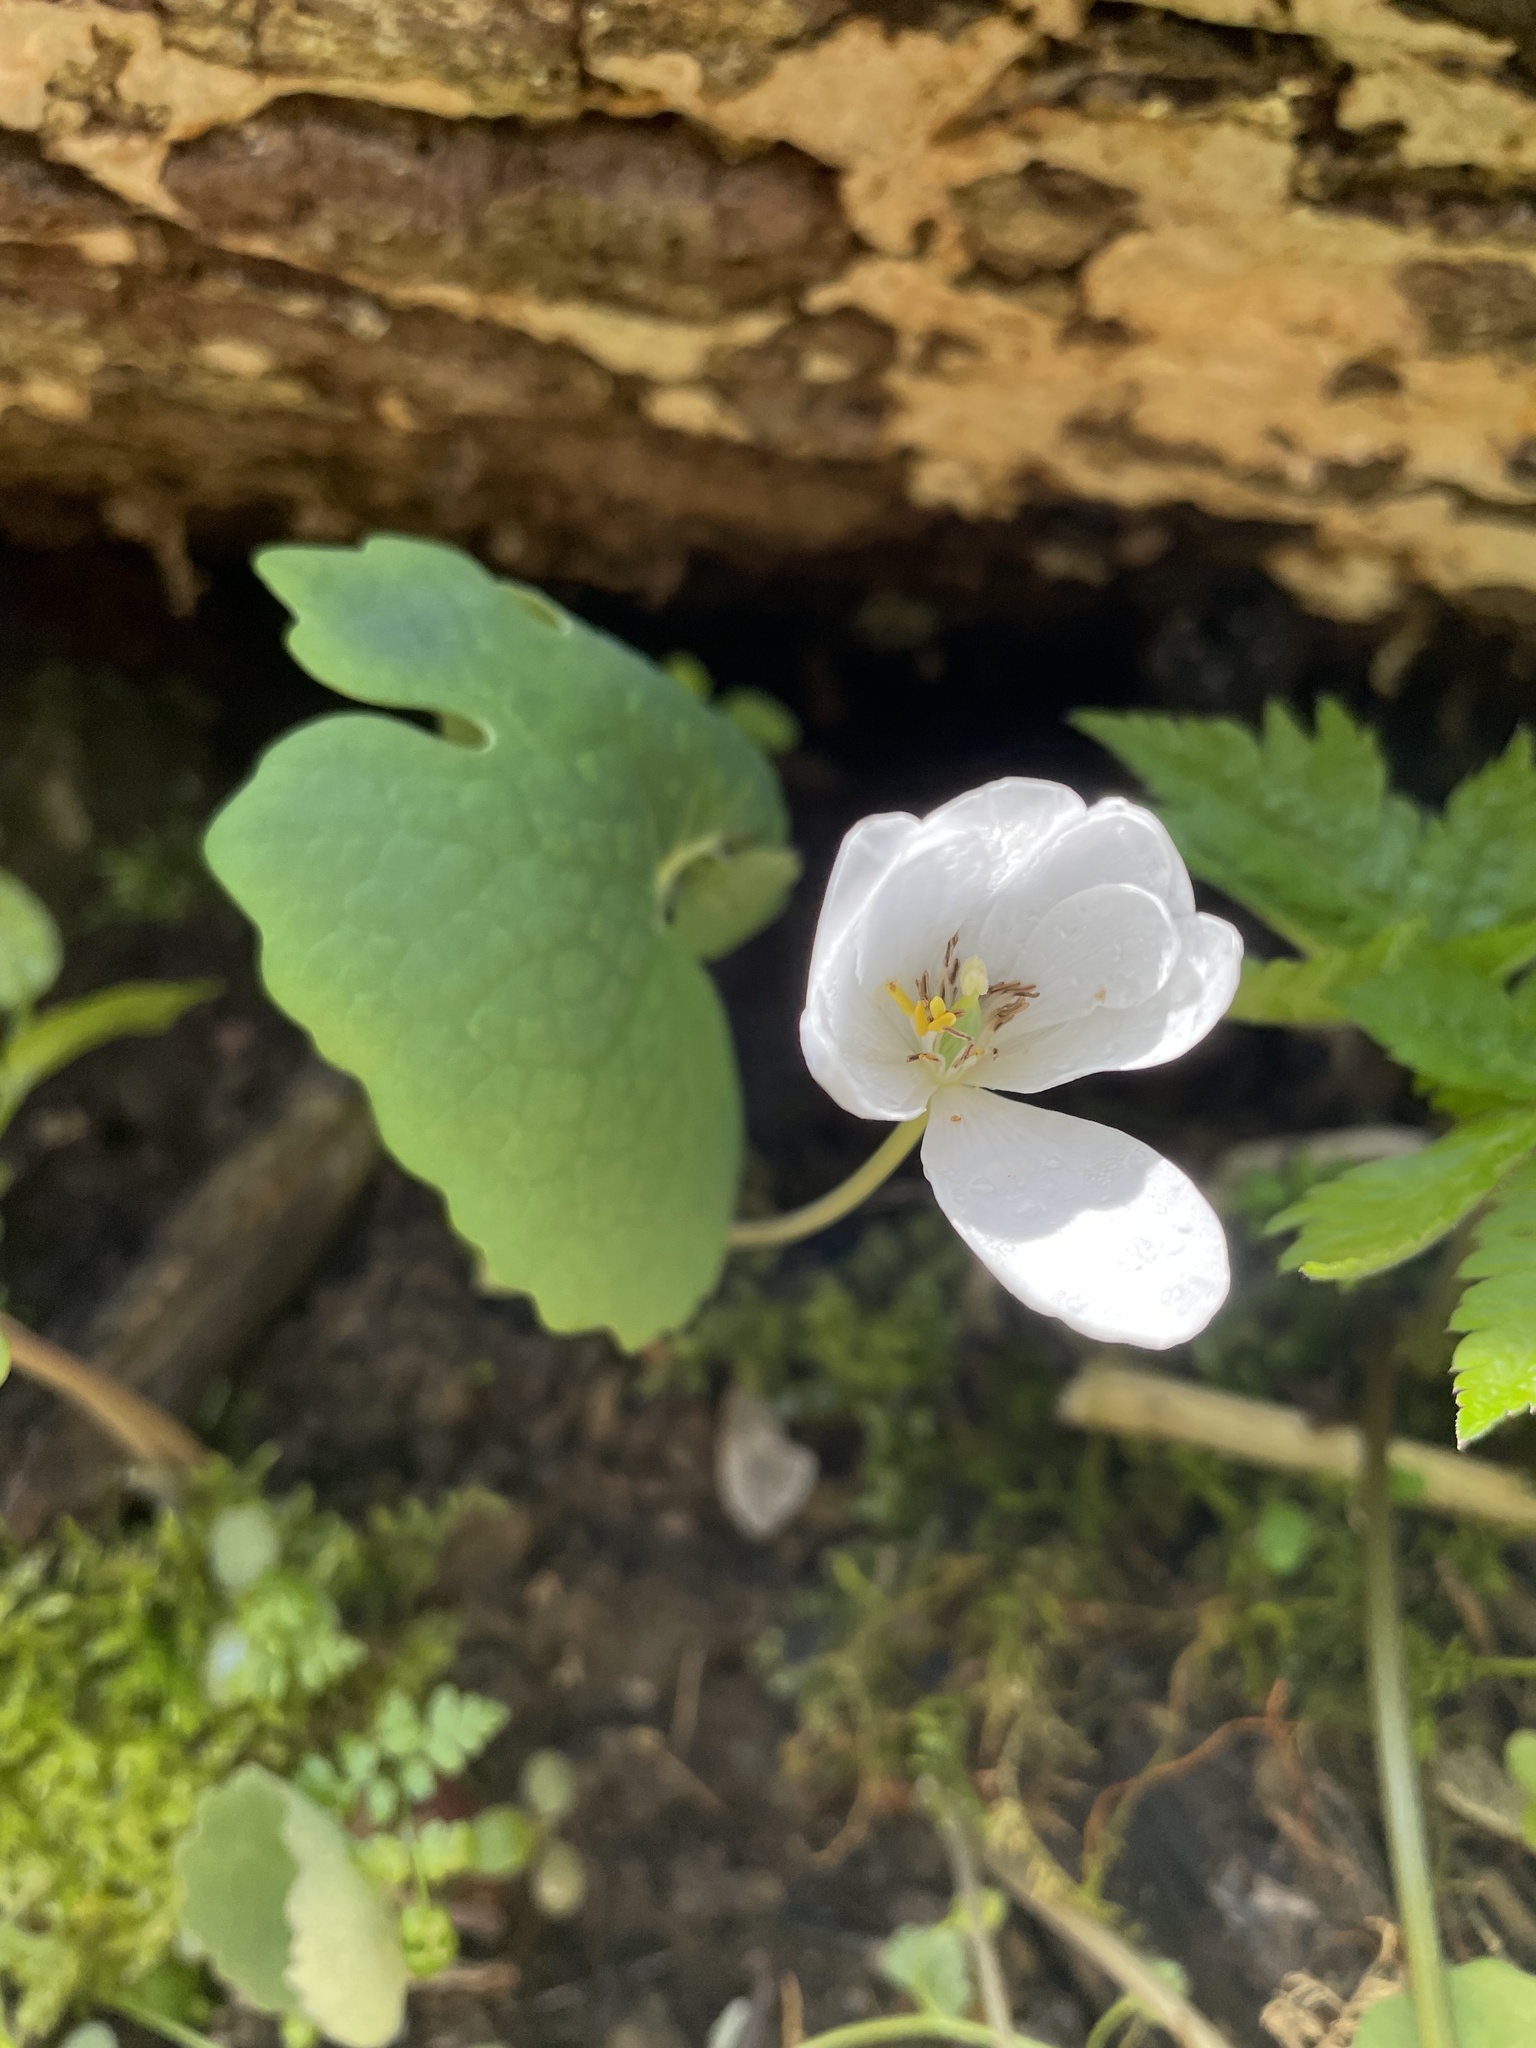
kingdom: Plantae
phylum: Tracheophyta
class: Magnoliopsida
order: Ranunculales
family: Papaveraceae
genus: Sanguinaria
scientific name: Sanguinaria canadensis
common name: Bloodroot
